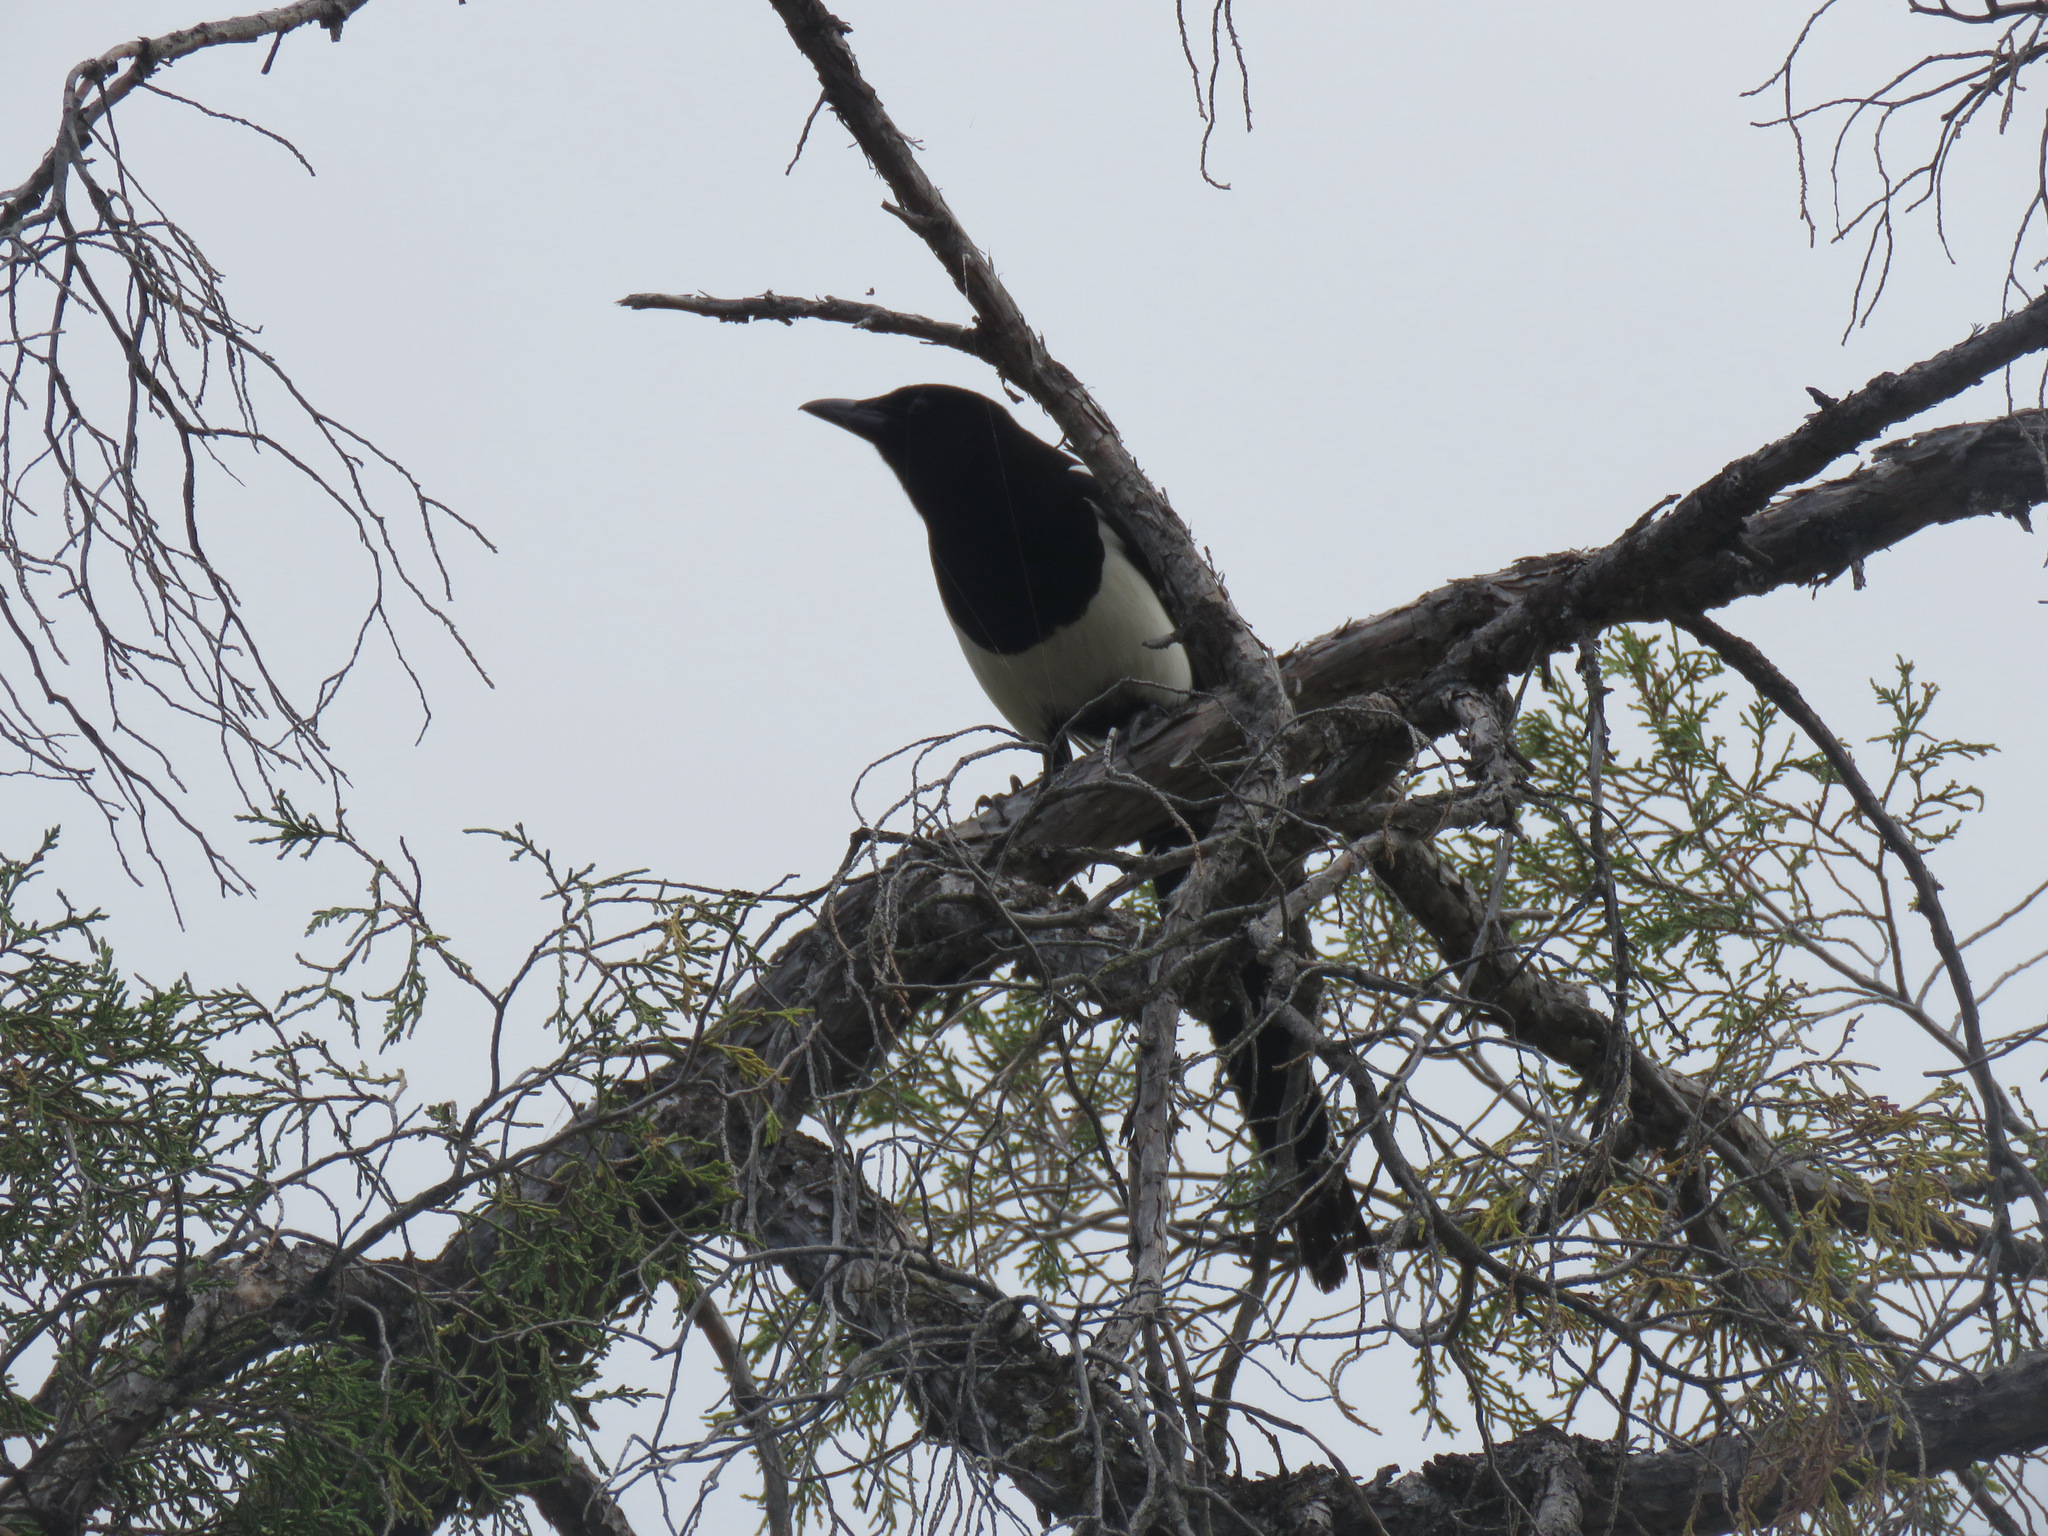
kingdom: Animalia
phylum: Chordata
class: Aves
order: Passeriformes
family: Corvidae
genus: Pica
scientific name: Pica hudsonia
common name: Black-billed magpie
